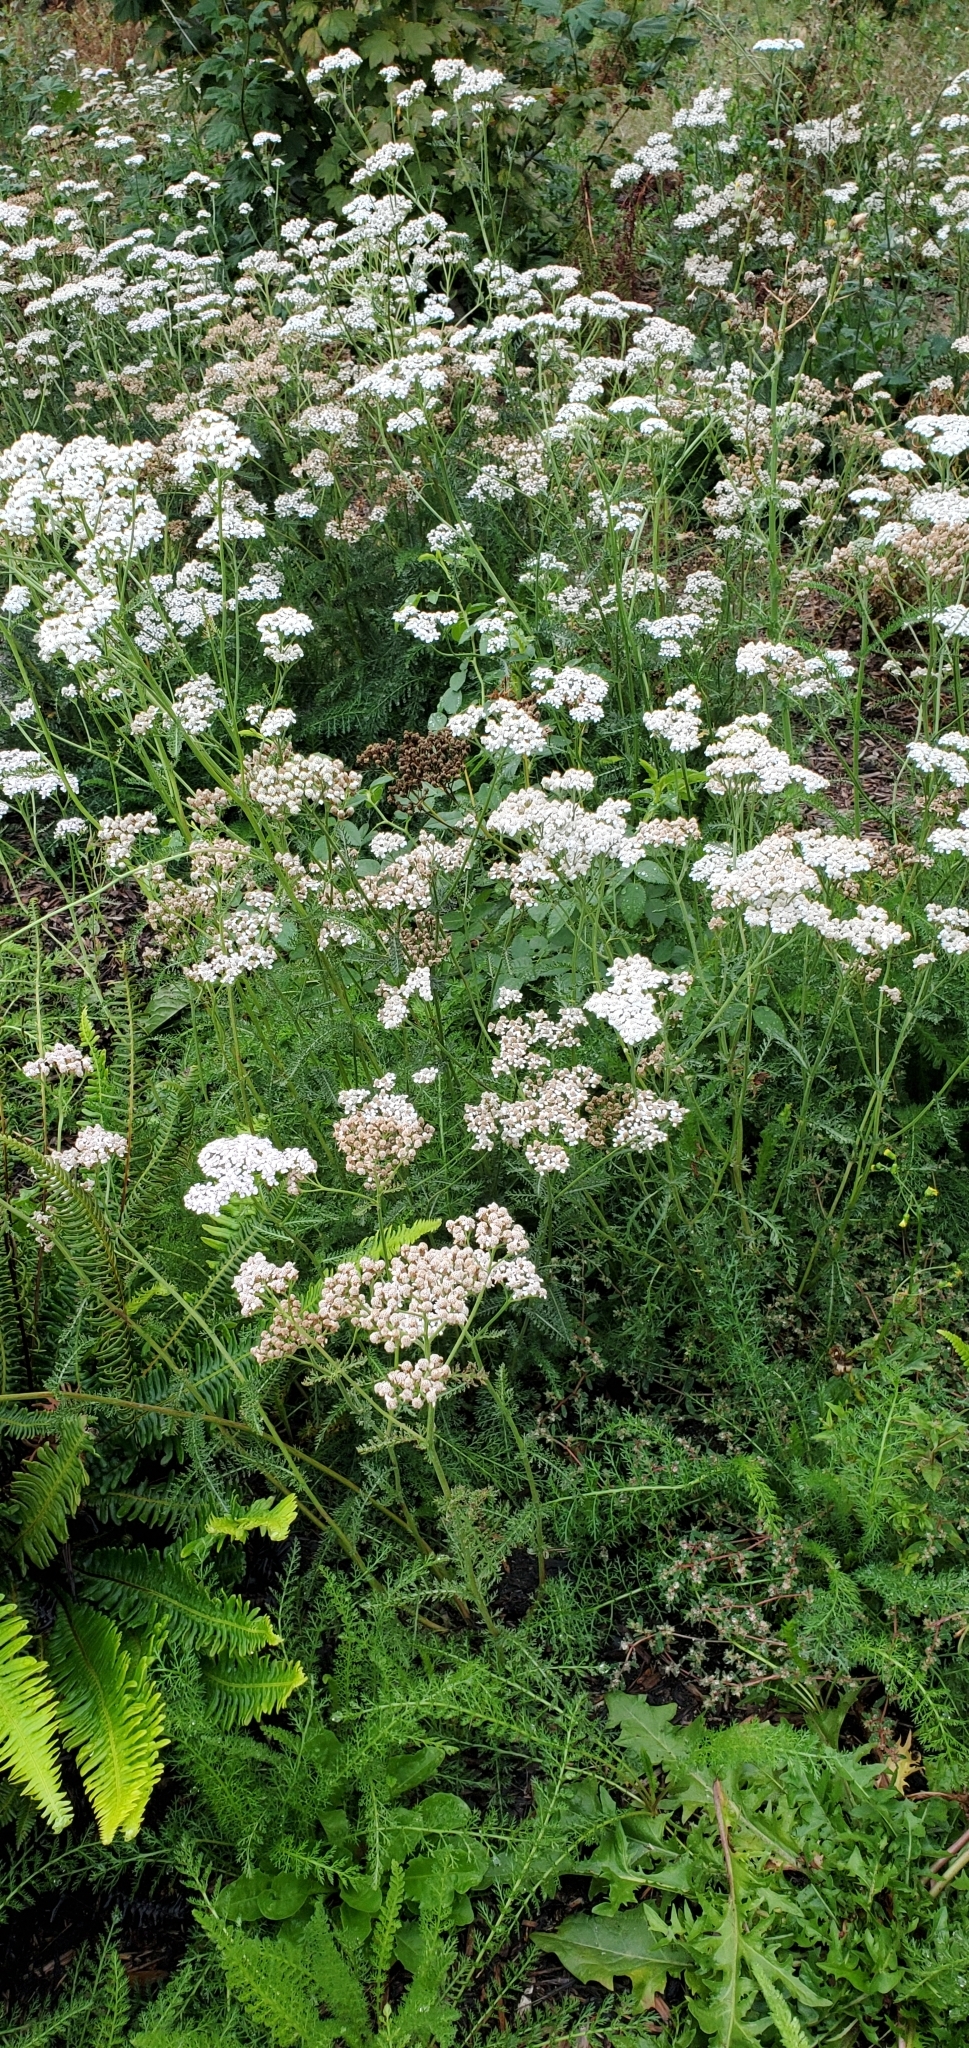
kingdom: Plantae
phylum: Tracheophyta
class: Magnoliopsida
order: Asterales
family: Asteraceae
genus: Achillea
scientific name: Achillea millefolium
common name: Yarrow
